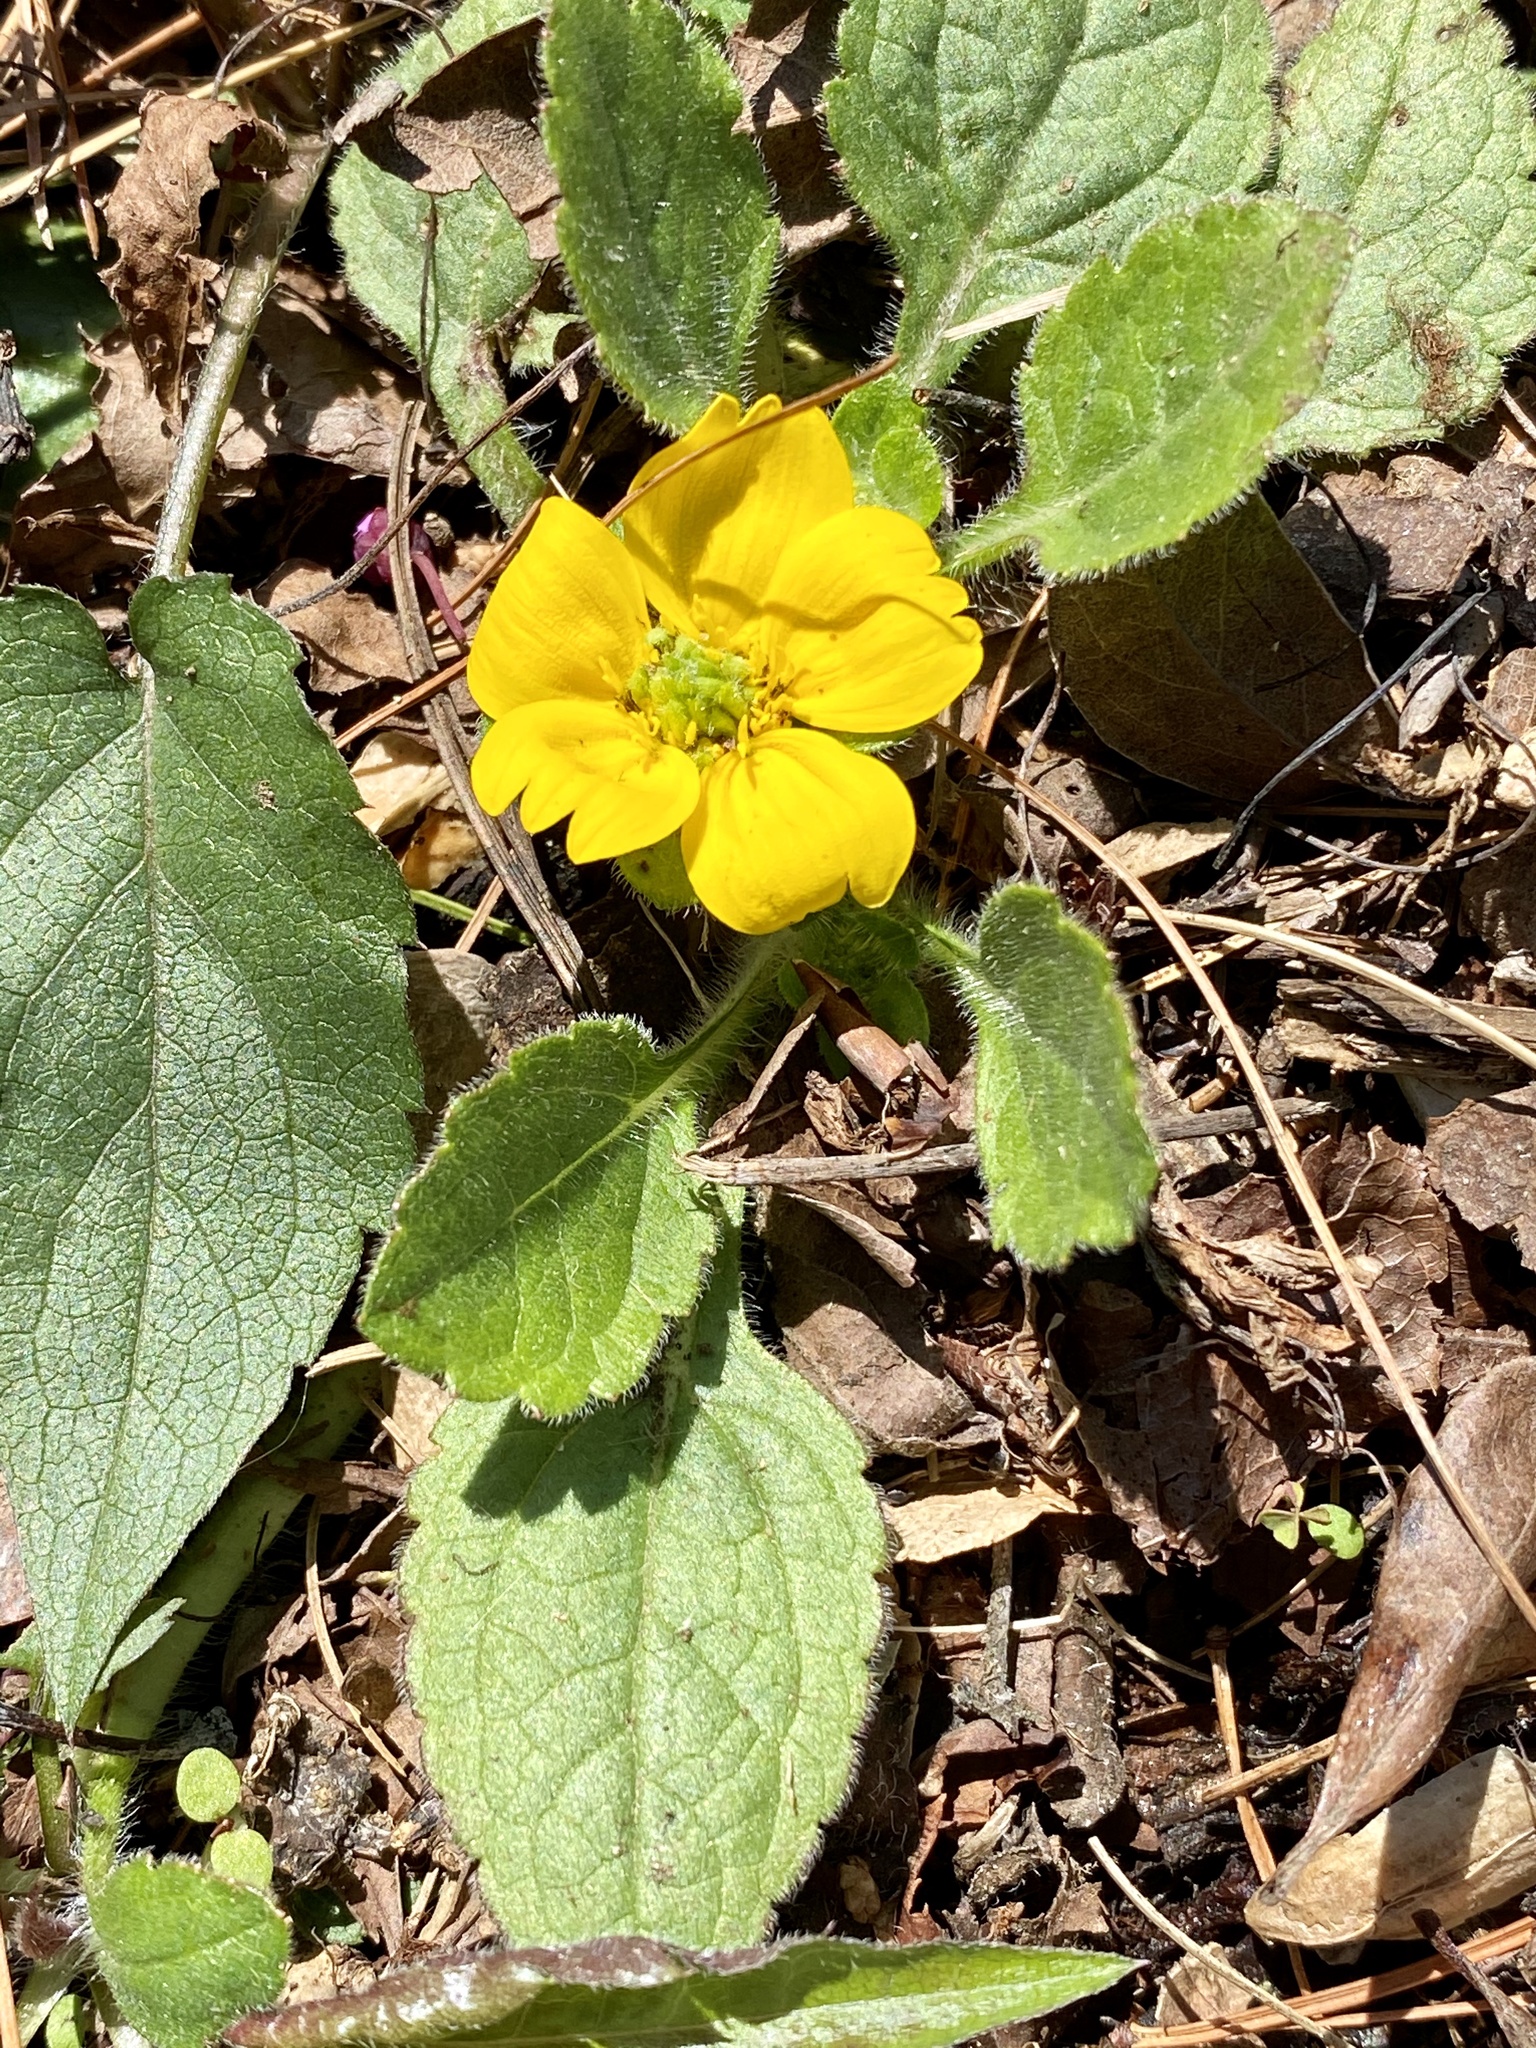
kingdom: Plantae
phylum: Tracheophyta
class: Magnoliopsida
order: Asterales
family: Asteraceae
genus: Chrysogonum
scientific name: Chrysogonum virginianum
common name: Golden-knee
